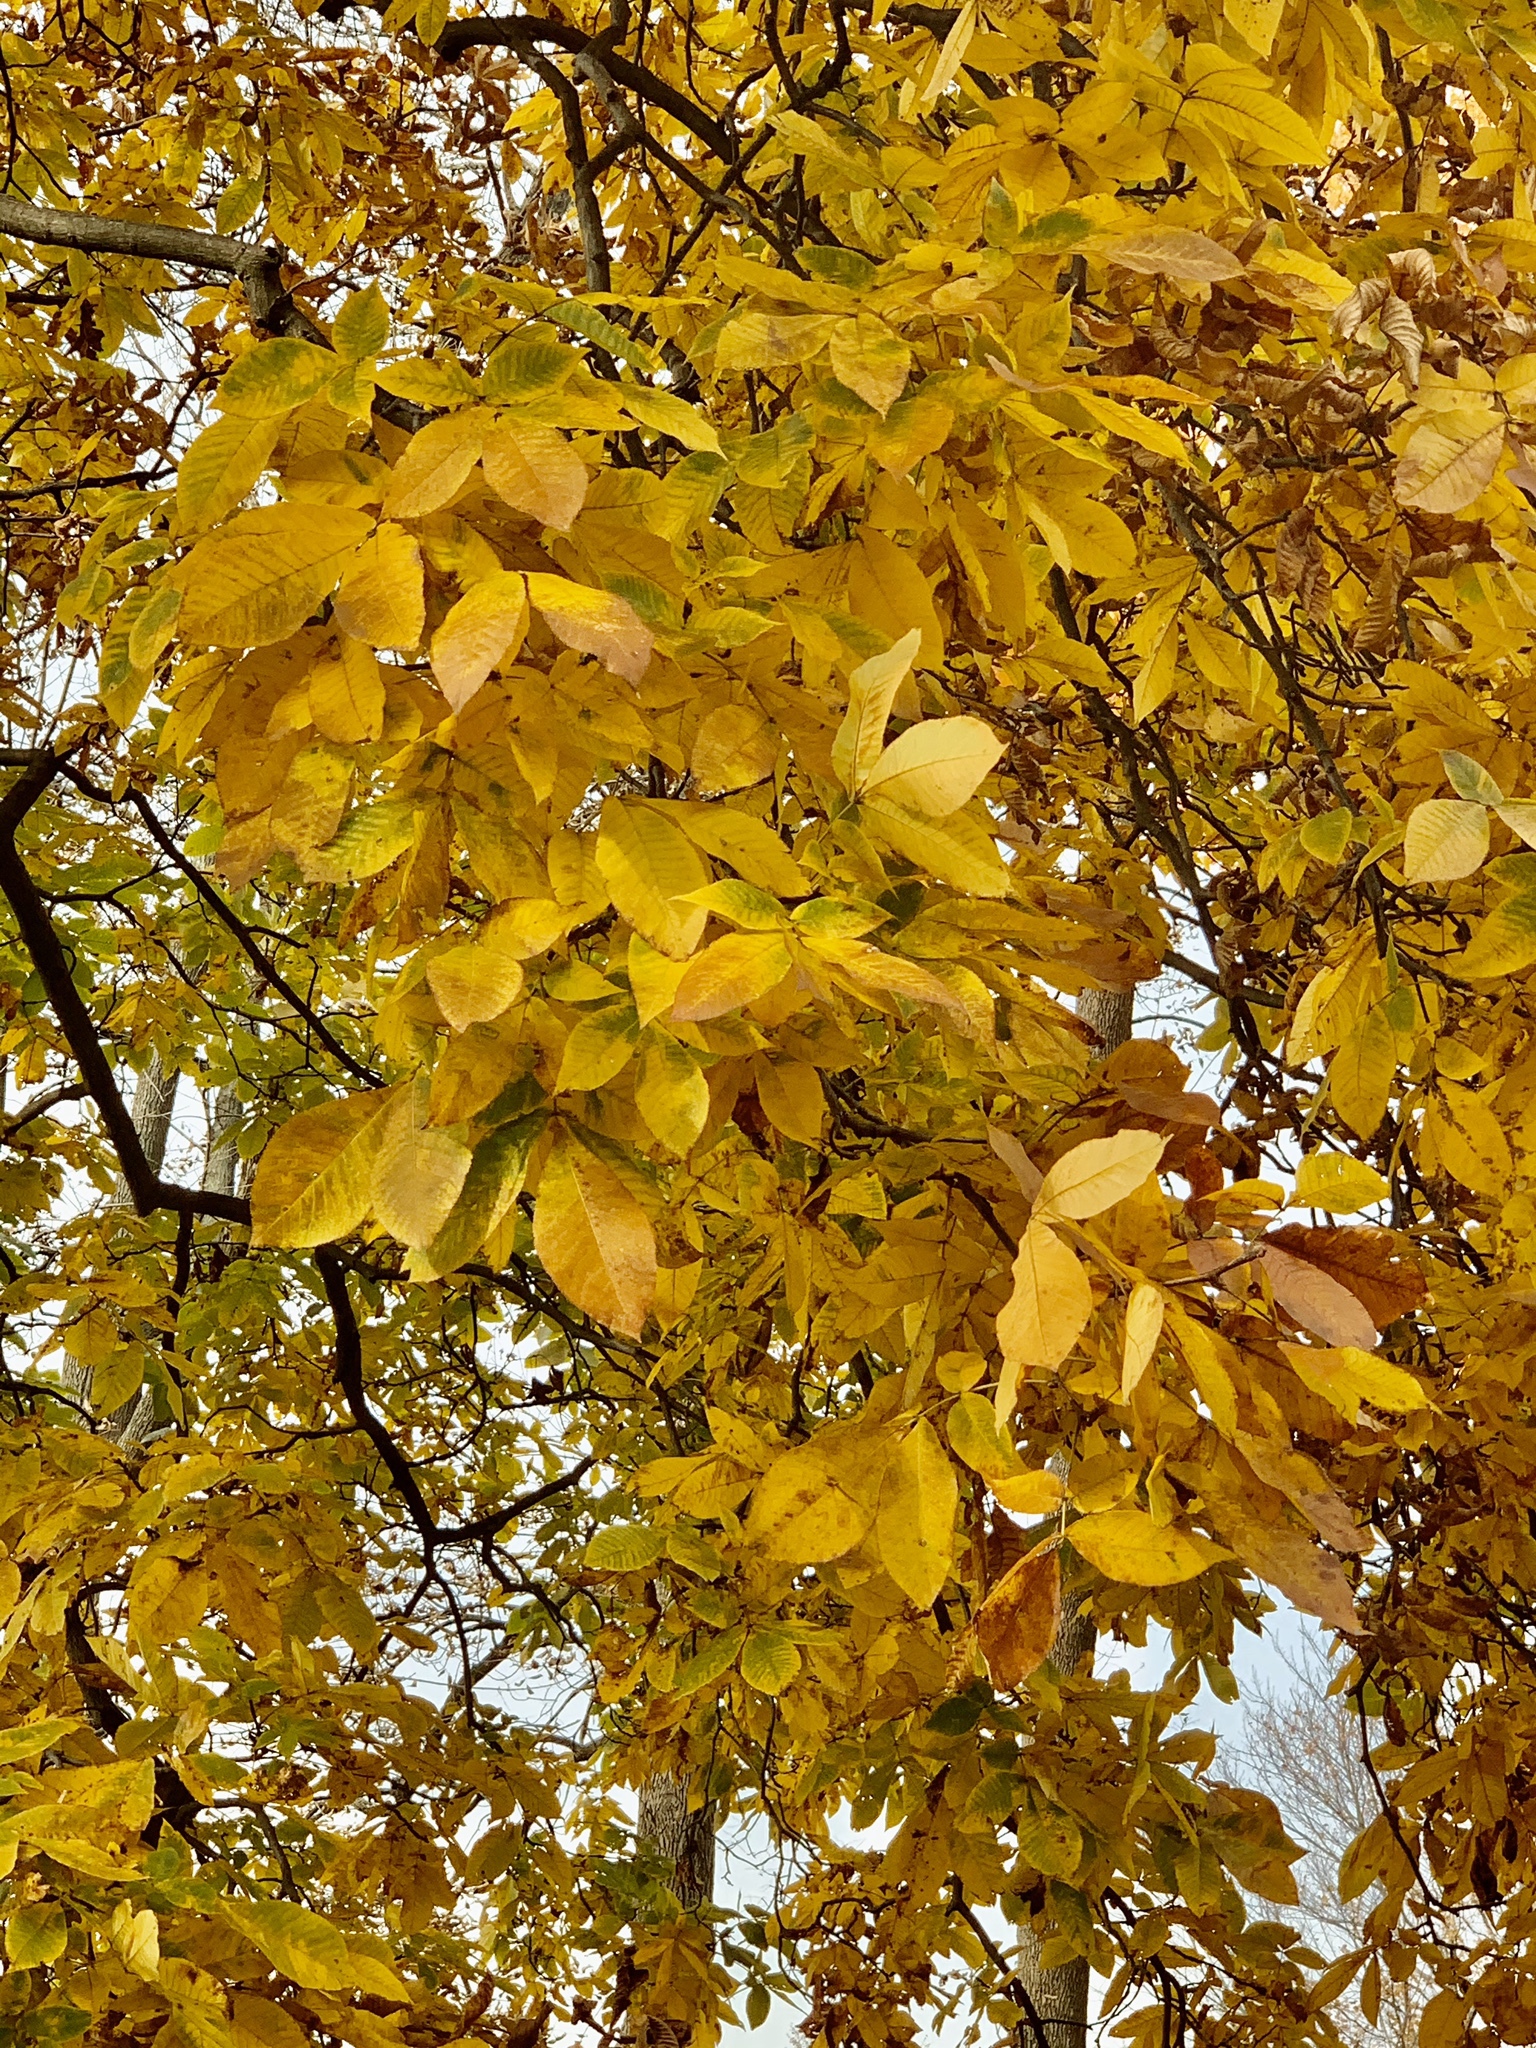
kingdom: Plantae
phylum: Tracheophyta
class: Magnoliopsida
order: Fagales
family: Juglandaceae
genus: Carya
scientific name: Carya ovata
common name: Shagbark hickory
